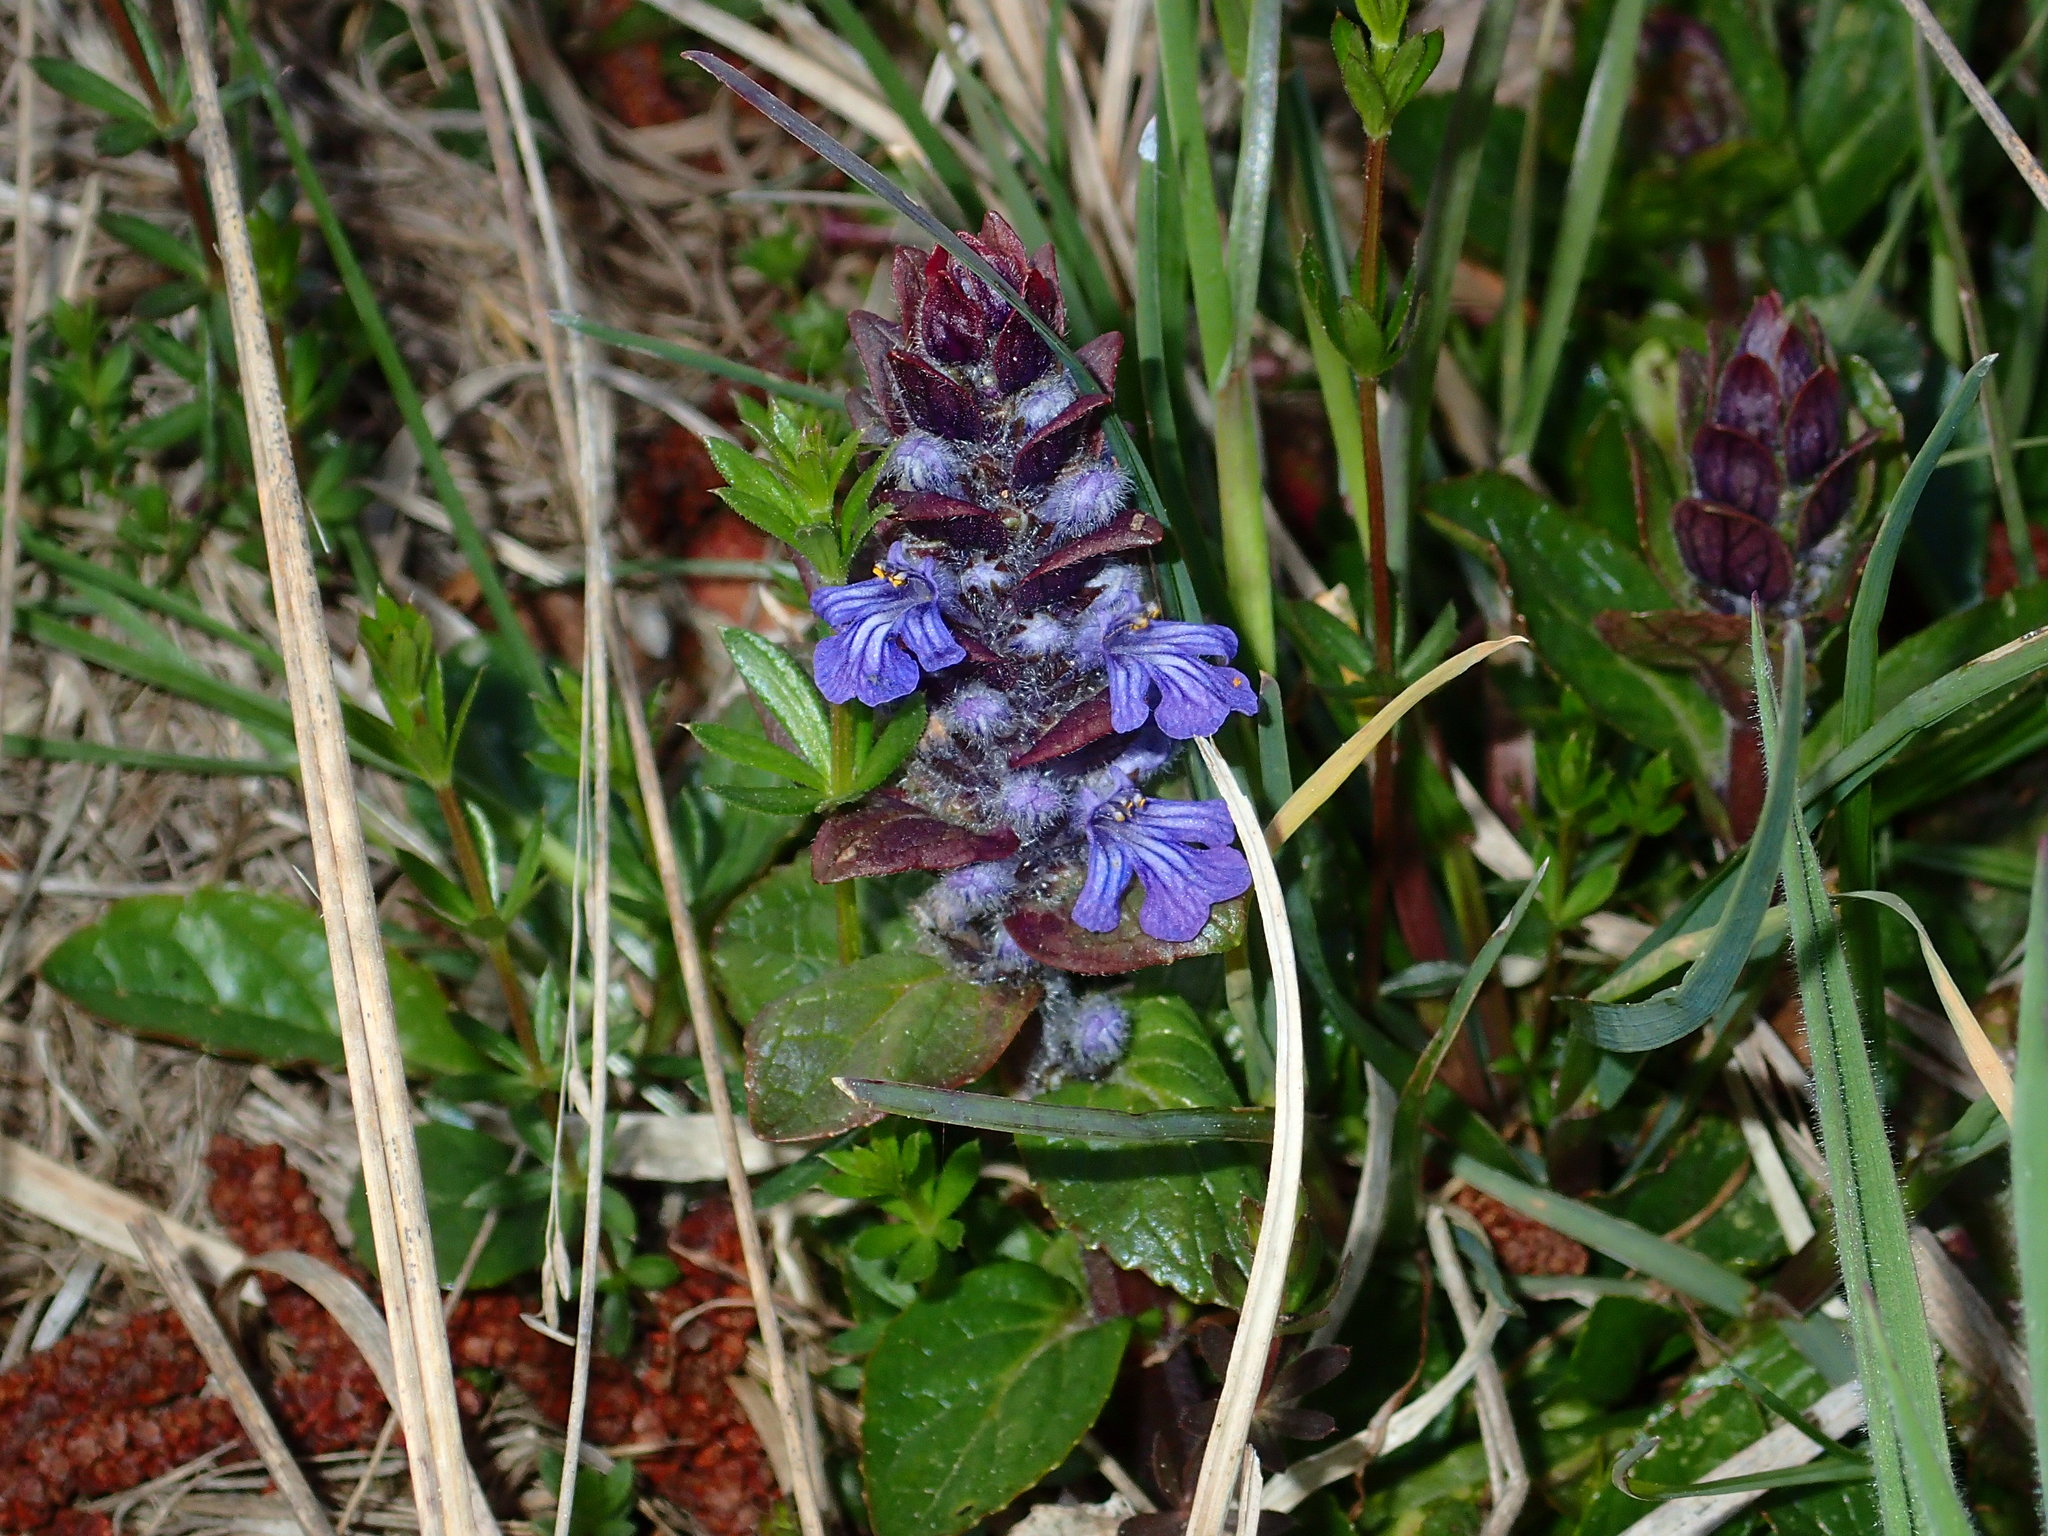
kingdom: Plantae
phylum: Tracheophyta
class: Magnoliopsida
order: Lamiales
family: Lamiaceae
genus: Ajuga
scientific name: Ajuga reptans
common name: Bugle
